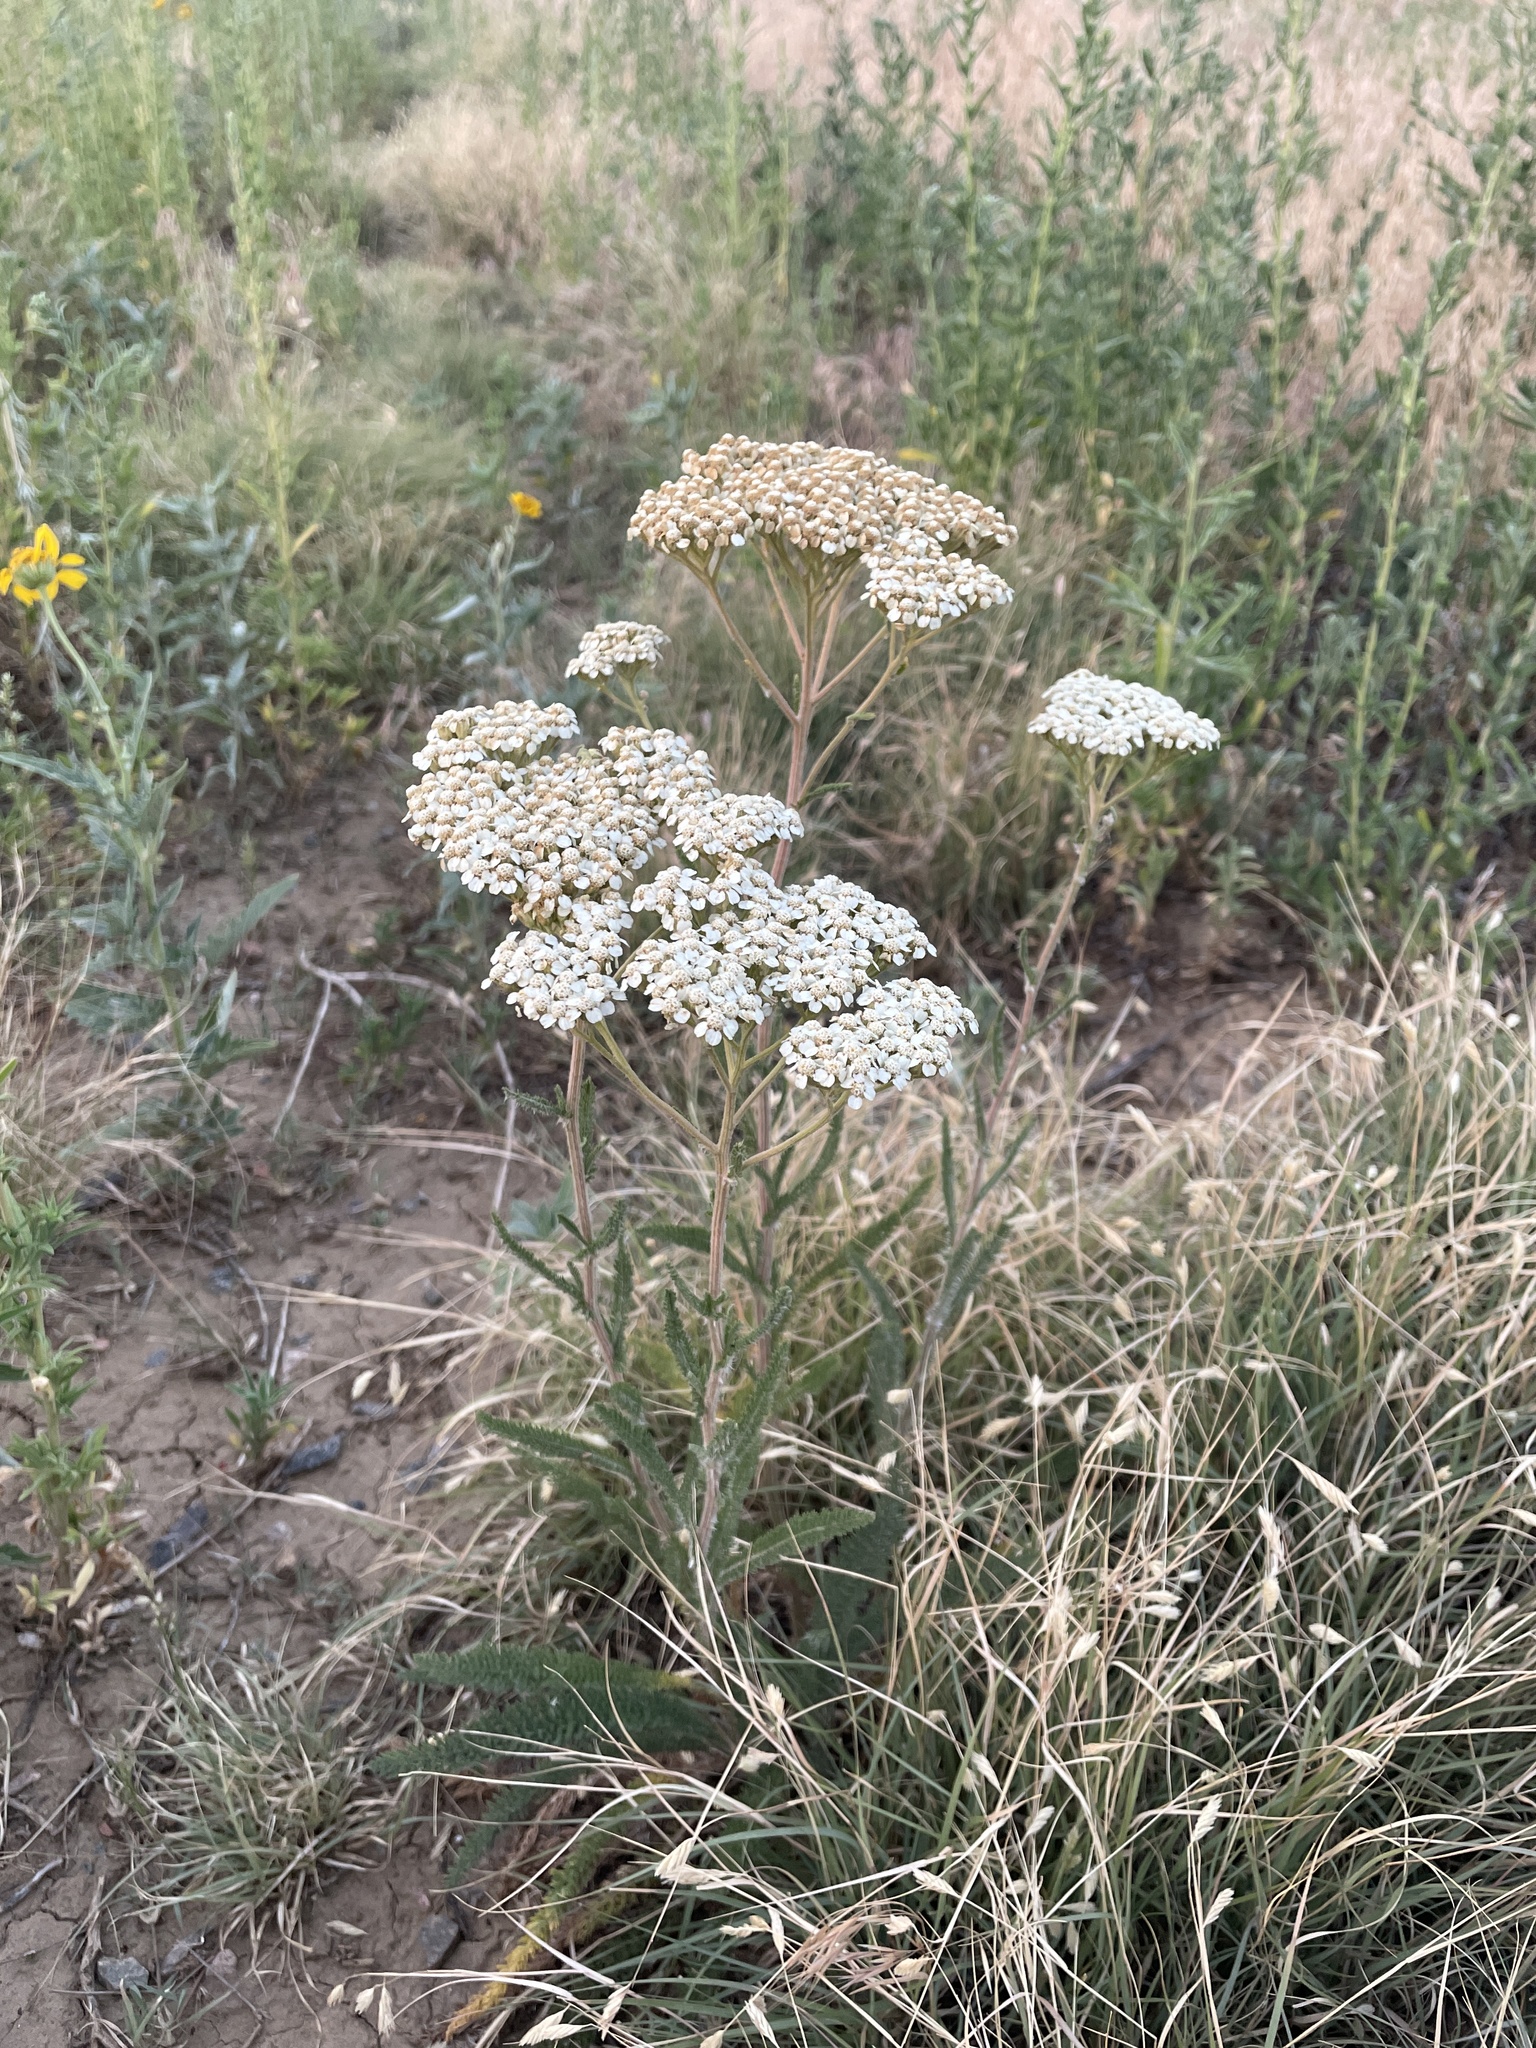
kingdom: Plantae
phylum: Tracheophyta
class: Magnoliopsida
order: Asterales
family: Asteraceae
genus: Achillea
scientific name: Achillea millefolium
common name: Yarrow
